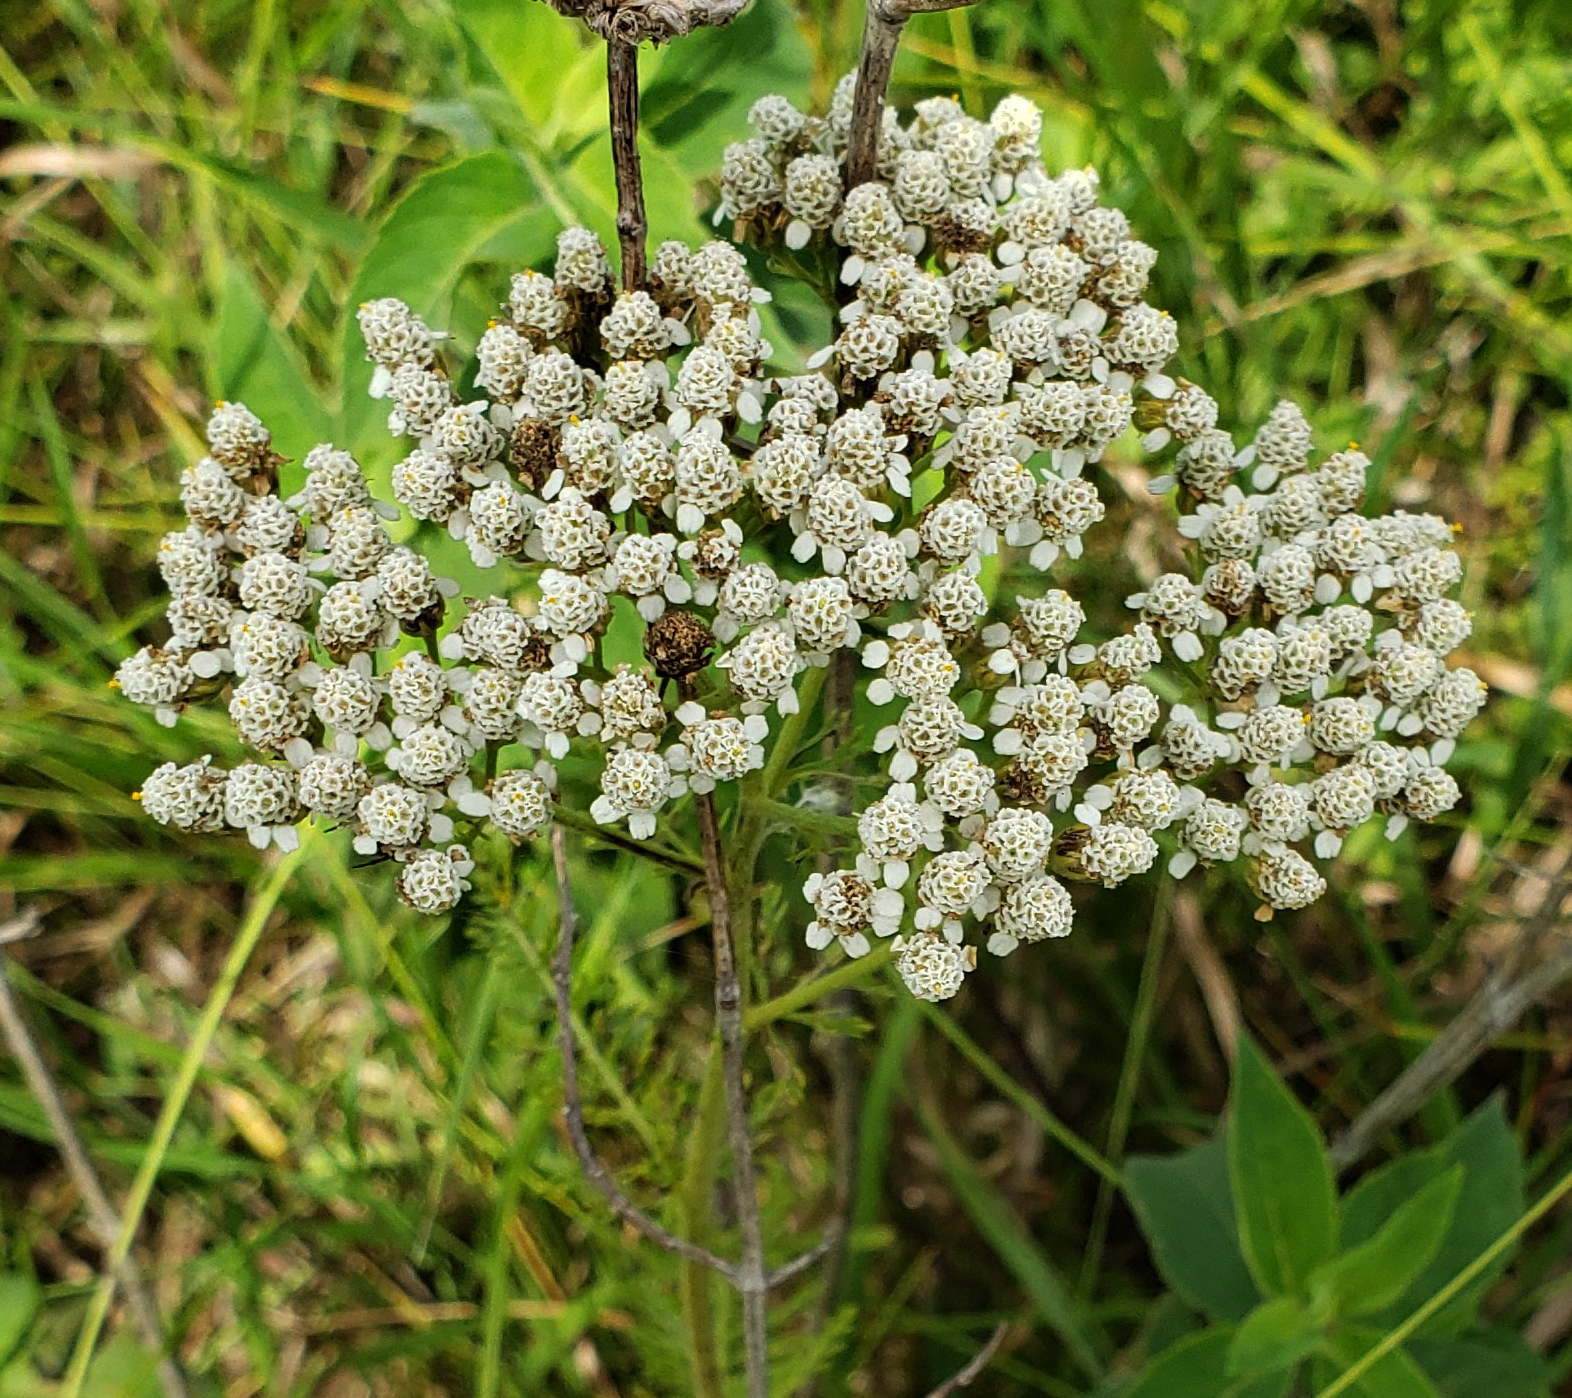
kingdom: Plantae
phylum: Tracheophyta
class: Magnoliopsida
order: Asterales
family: Asteraceae
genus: Achillea
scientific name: Achillea millefolium
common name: Yarrow
